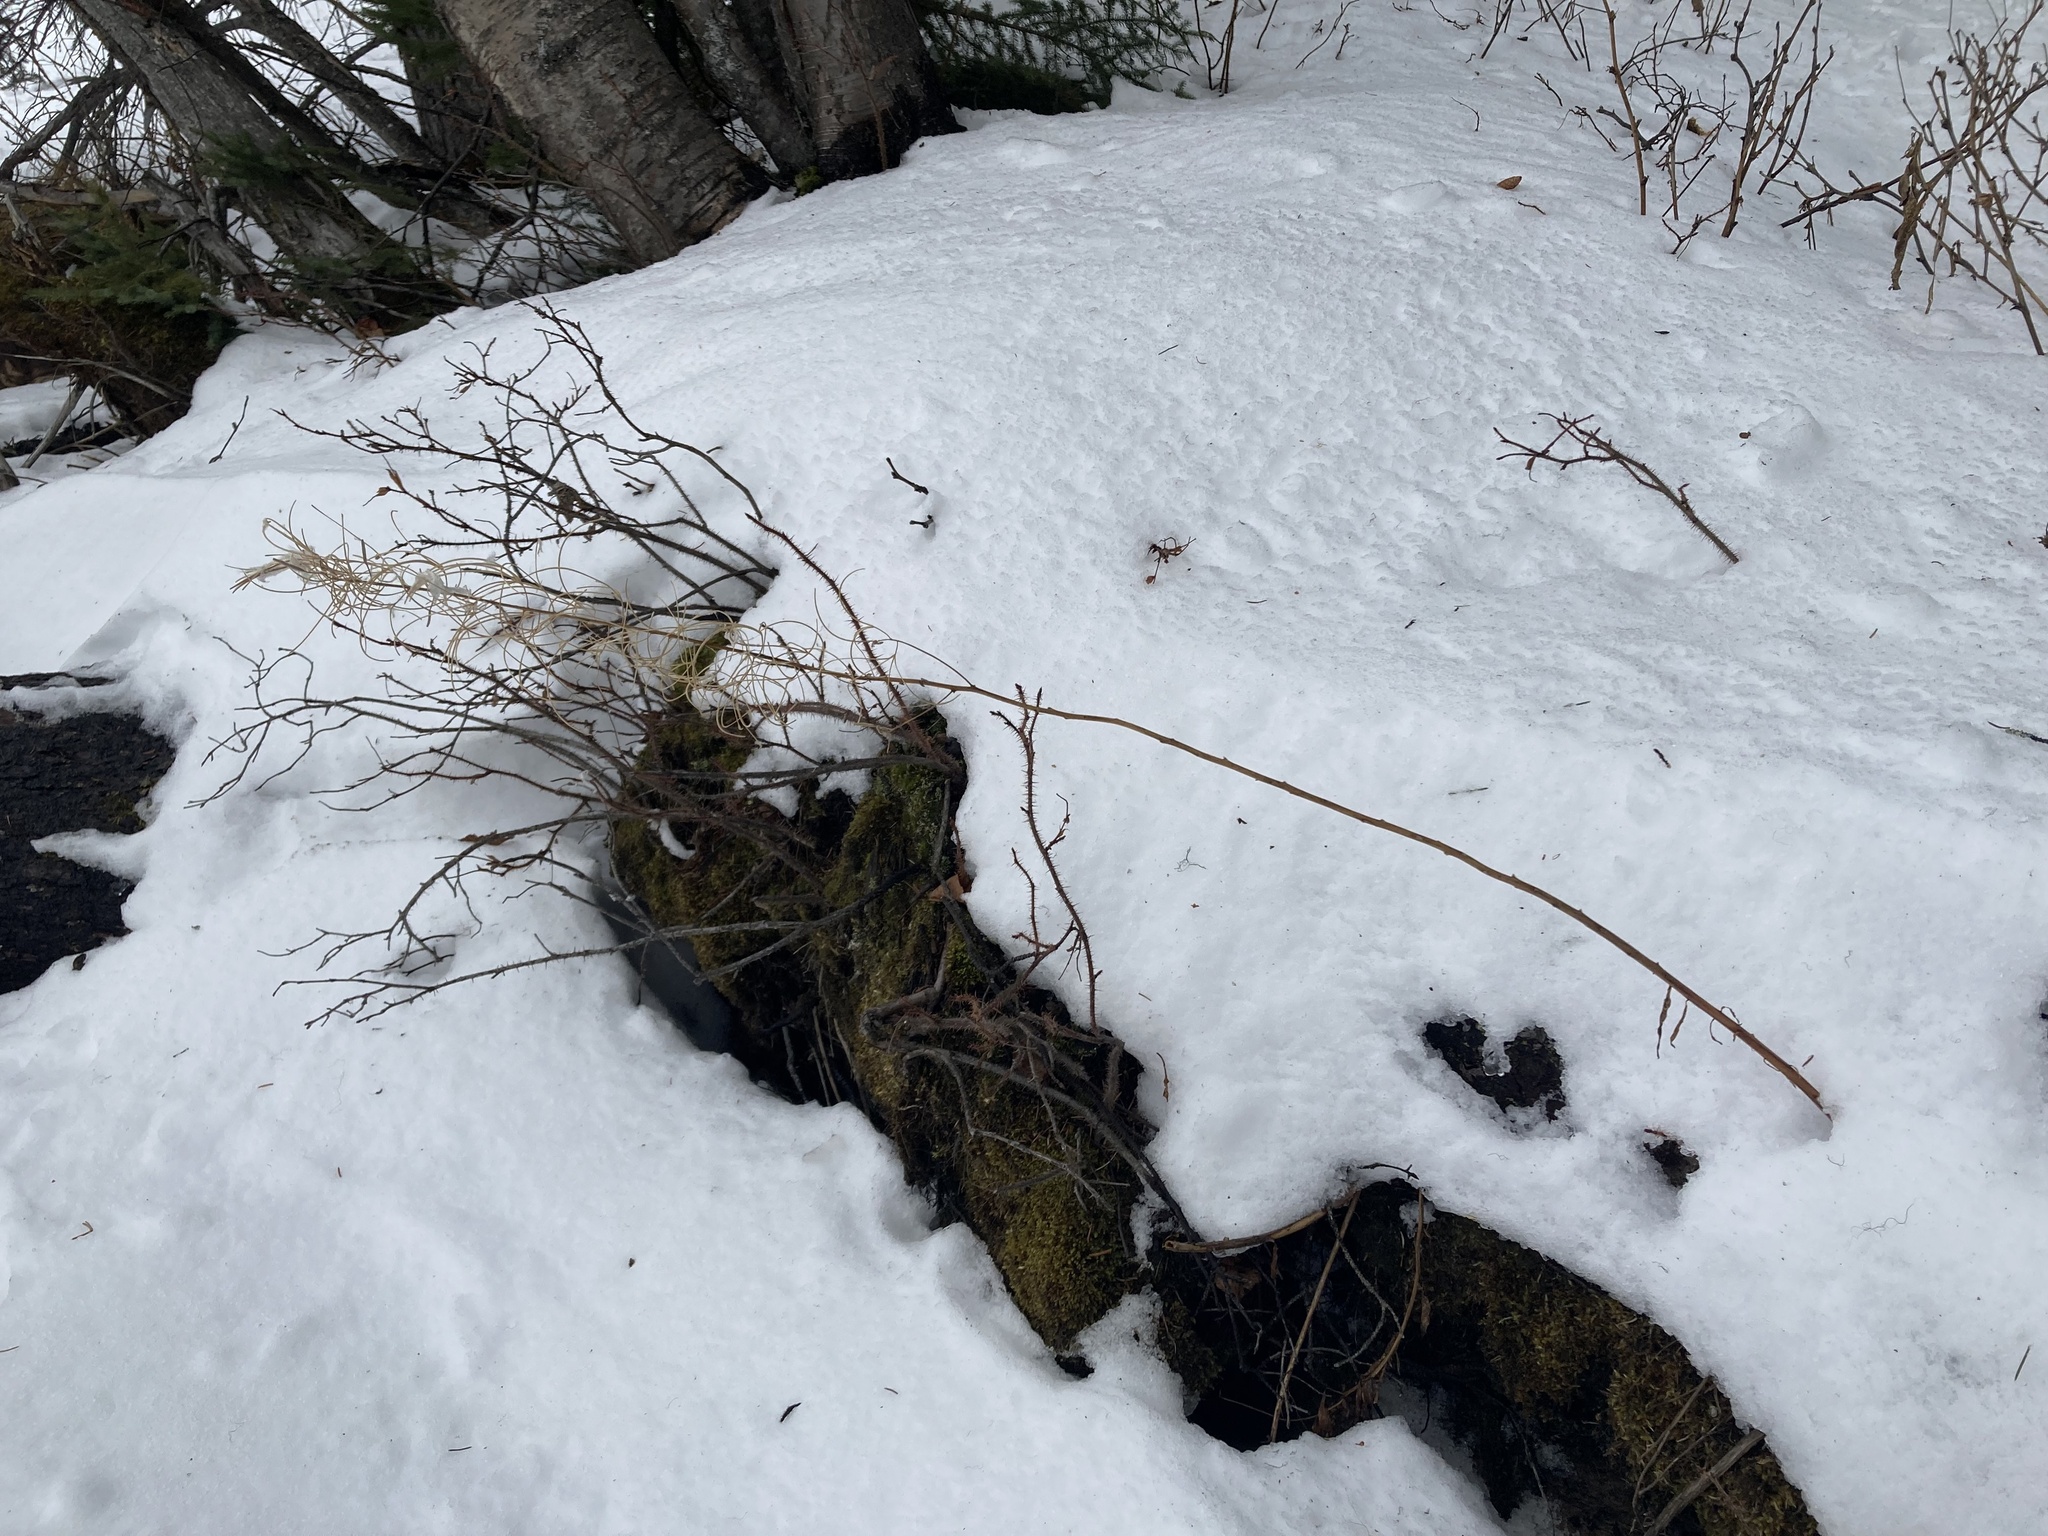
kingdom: Plantae
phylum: Tracheophyta
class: Magnoliopsida
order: Myrtales
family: Onagraceae
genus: Chamaenerion
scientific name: Chamaenerion angustifolium
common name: Fireweed
